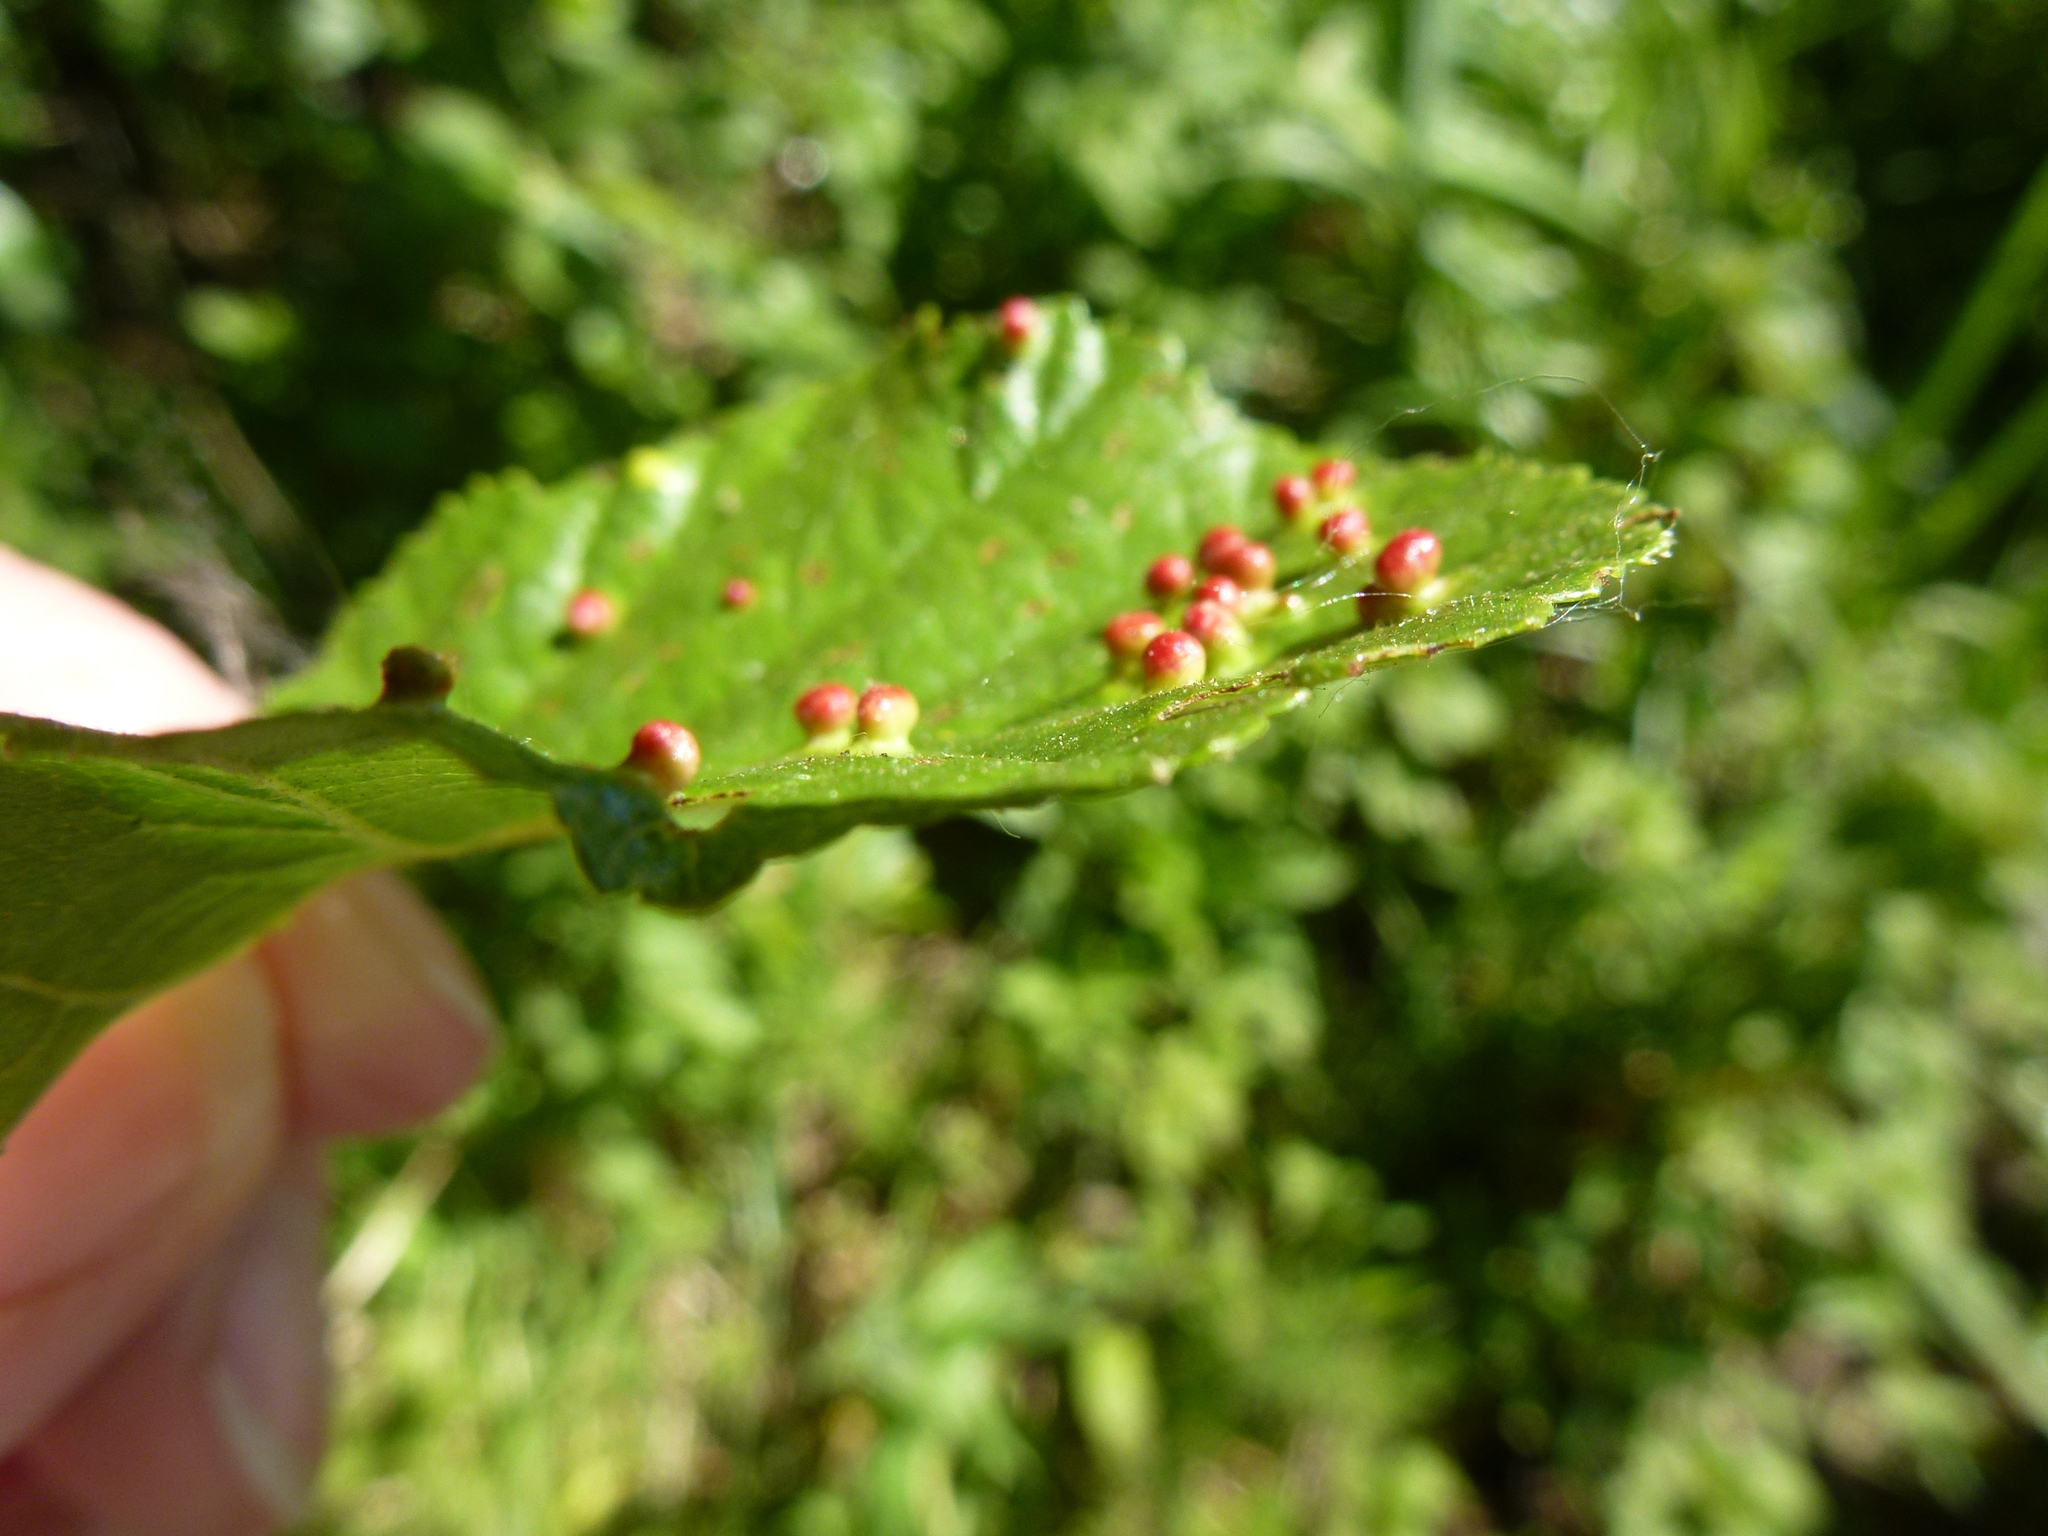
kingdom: Animalia
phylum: Arthropoda
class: Arachnida
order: Trombidiformes
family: Eriophyidae
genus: Eriophyes
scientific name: Eriophyes laevis
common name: Alder leaf gall mite
